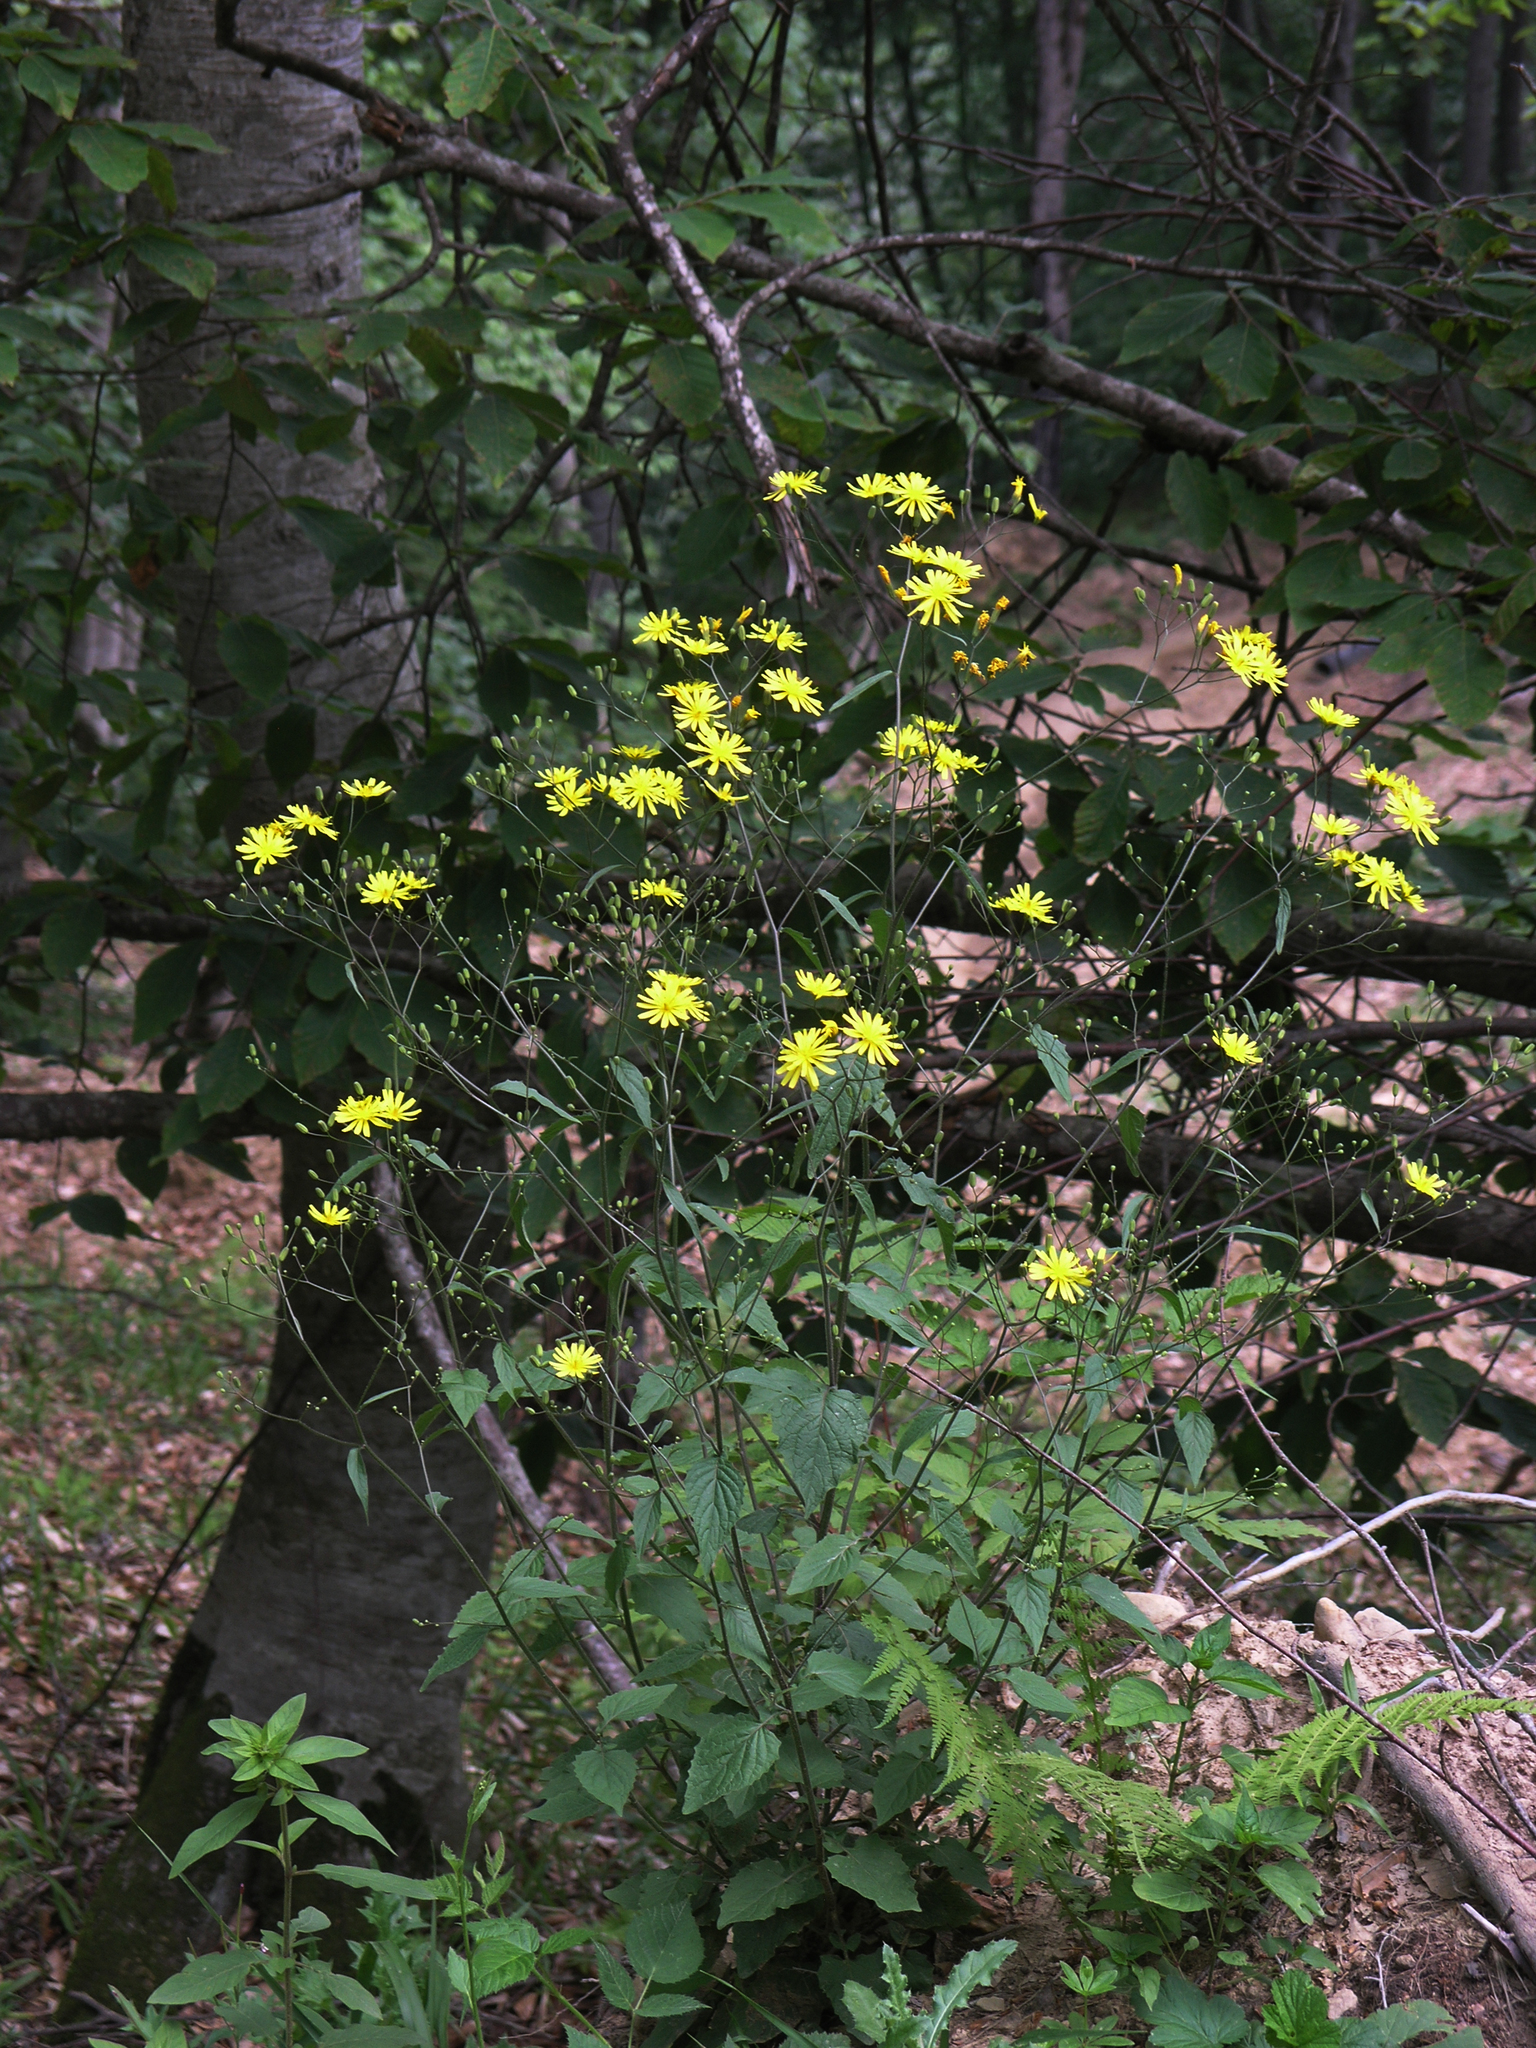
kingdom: Plantae
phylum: Tracheophyta
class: Magnoliopsida
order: Asterales
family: Asteraceae
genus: Lapsana
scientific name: Lapsana communis
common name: Nipplewort
